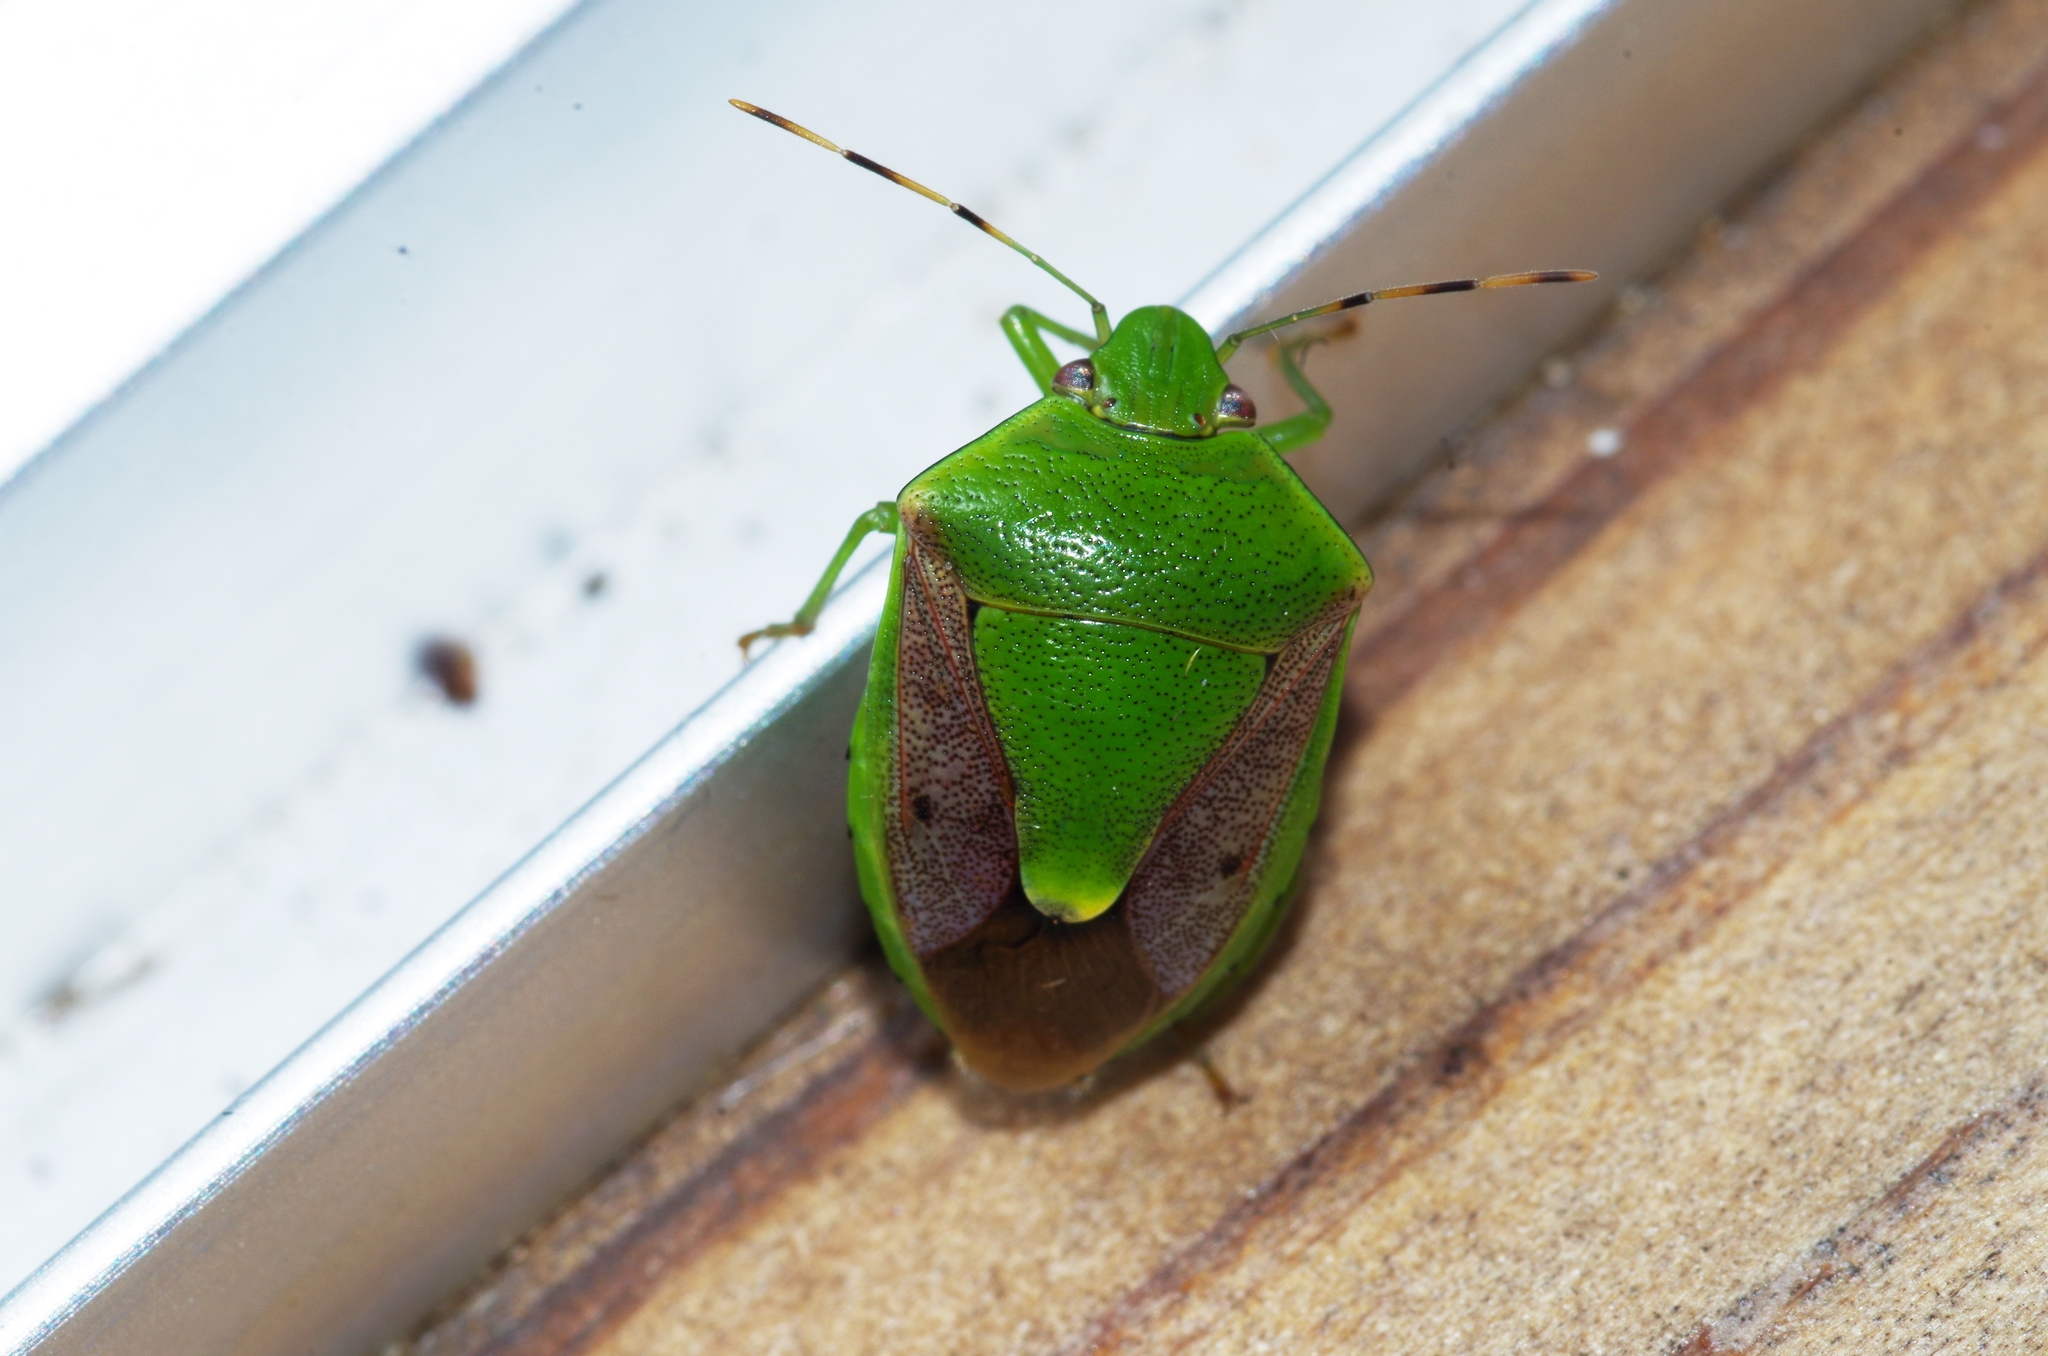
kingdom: Animalia
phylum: Arthropoda
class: Insecta
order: Hemiptera
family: Pentatomidae
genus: Plautia
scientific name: Plautia stali
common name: Stink bug
